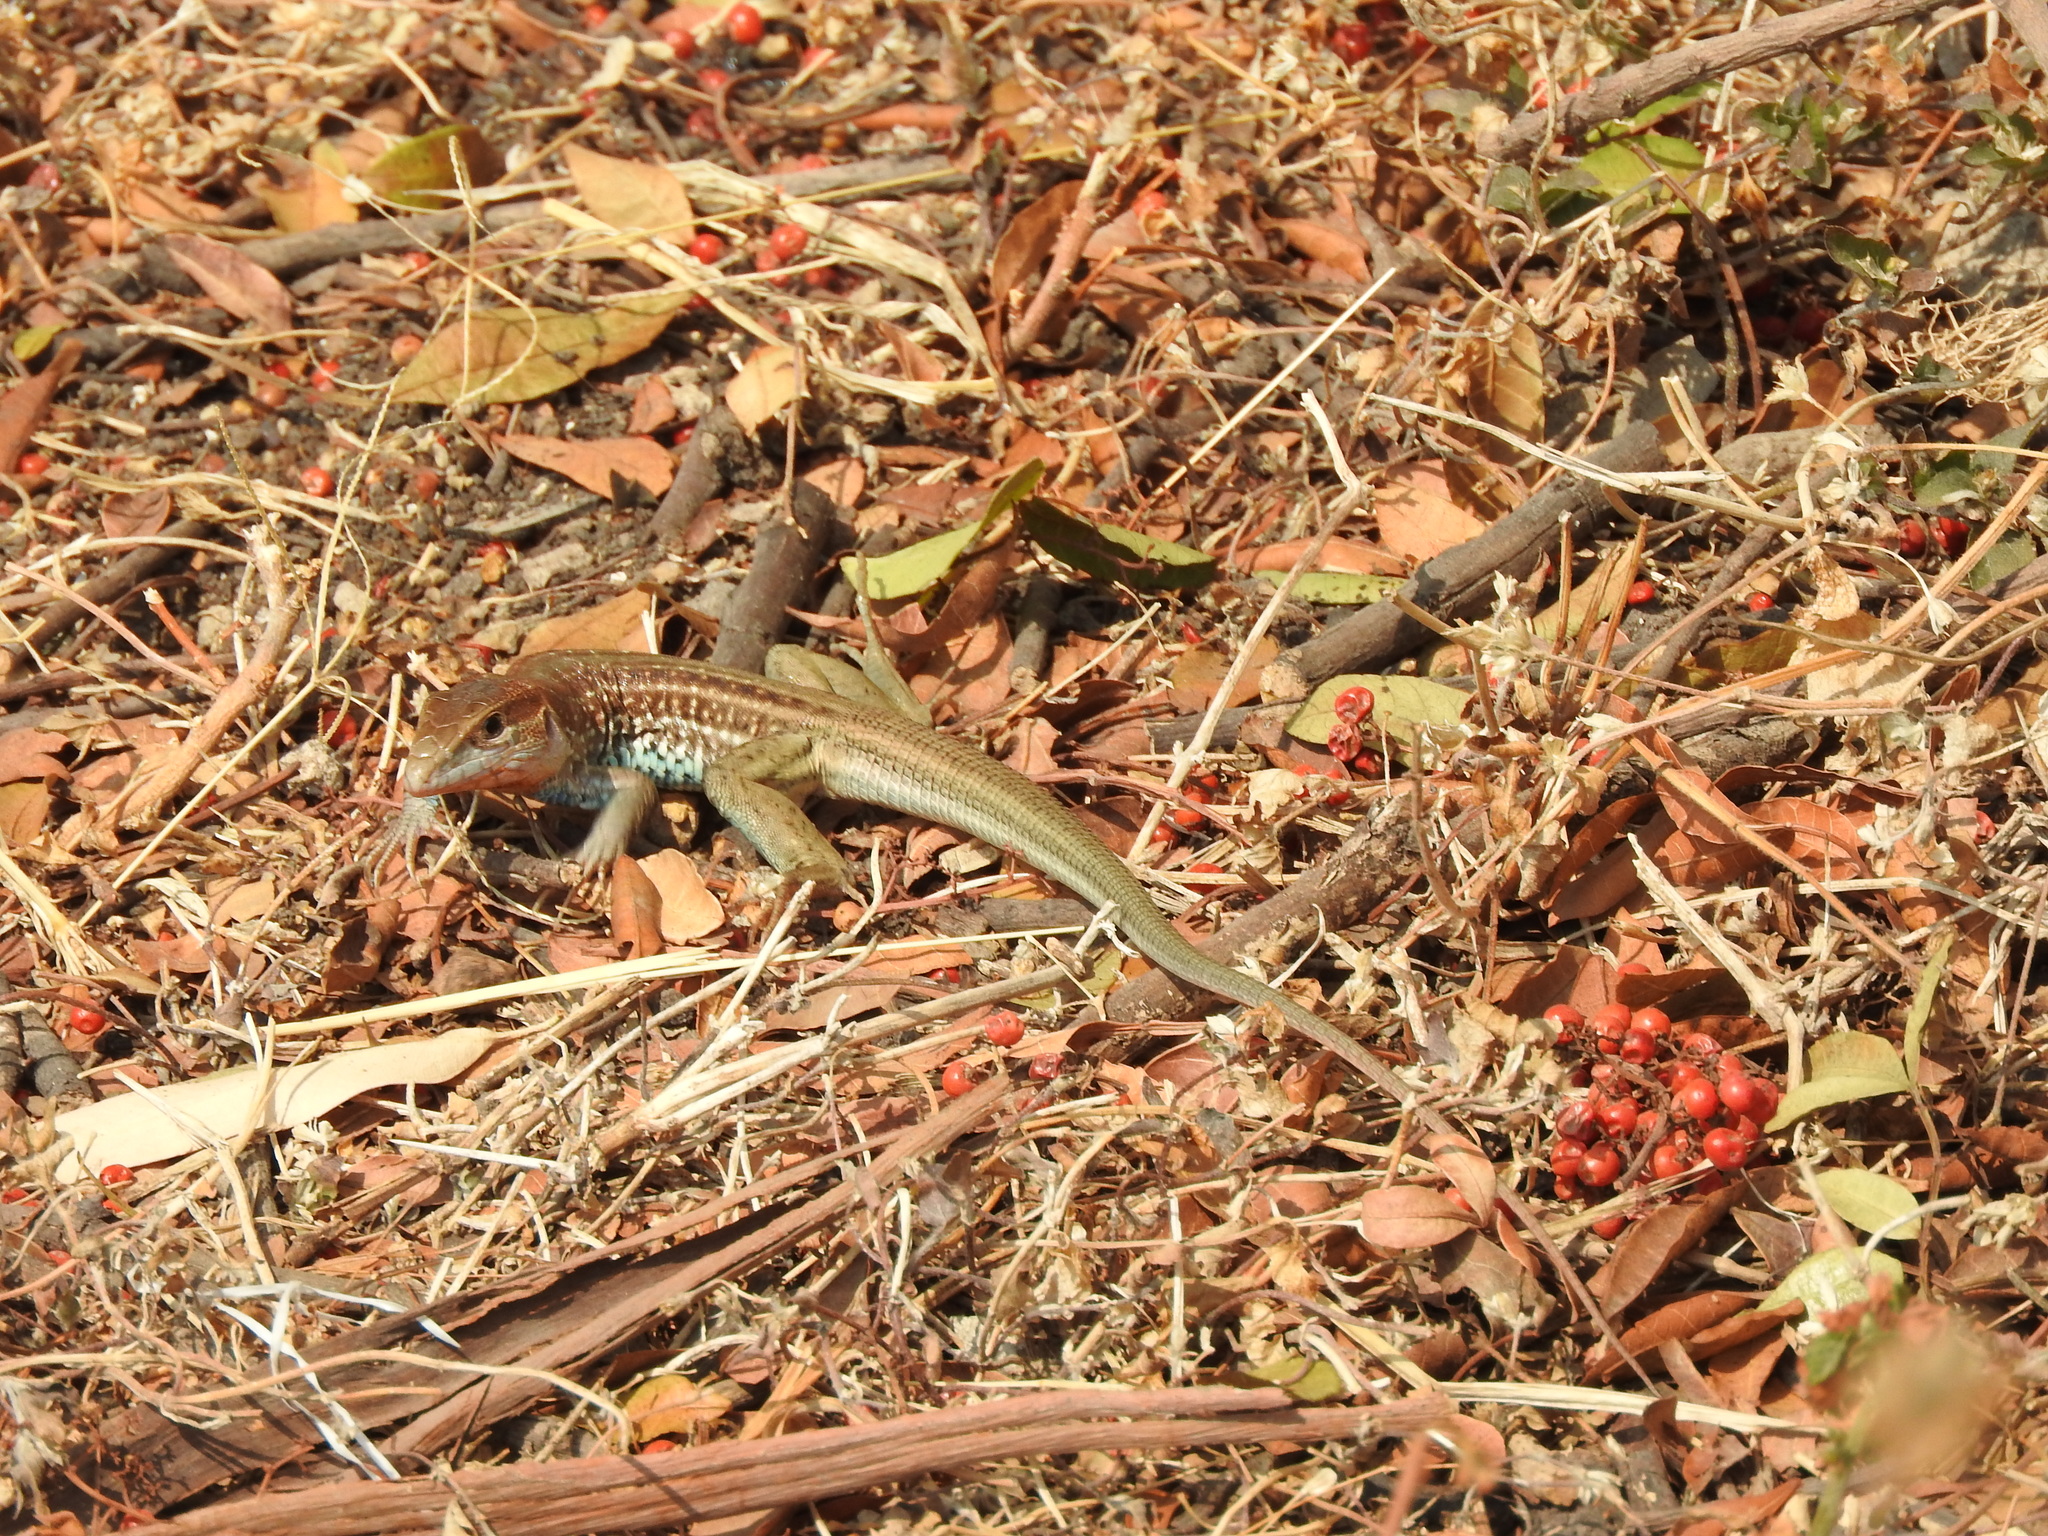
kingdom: Animalia
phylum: Chordata
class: Squamata
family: Teiidae
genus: Aspidoscelis
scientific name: Aspidoscelis gularis
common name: Eastern spotted whiptail
